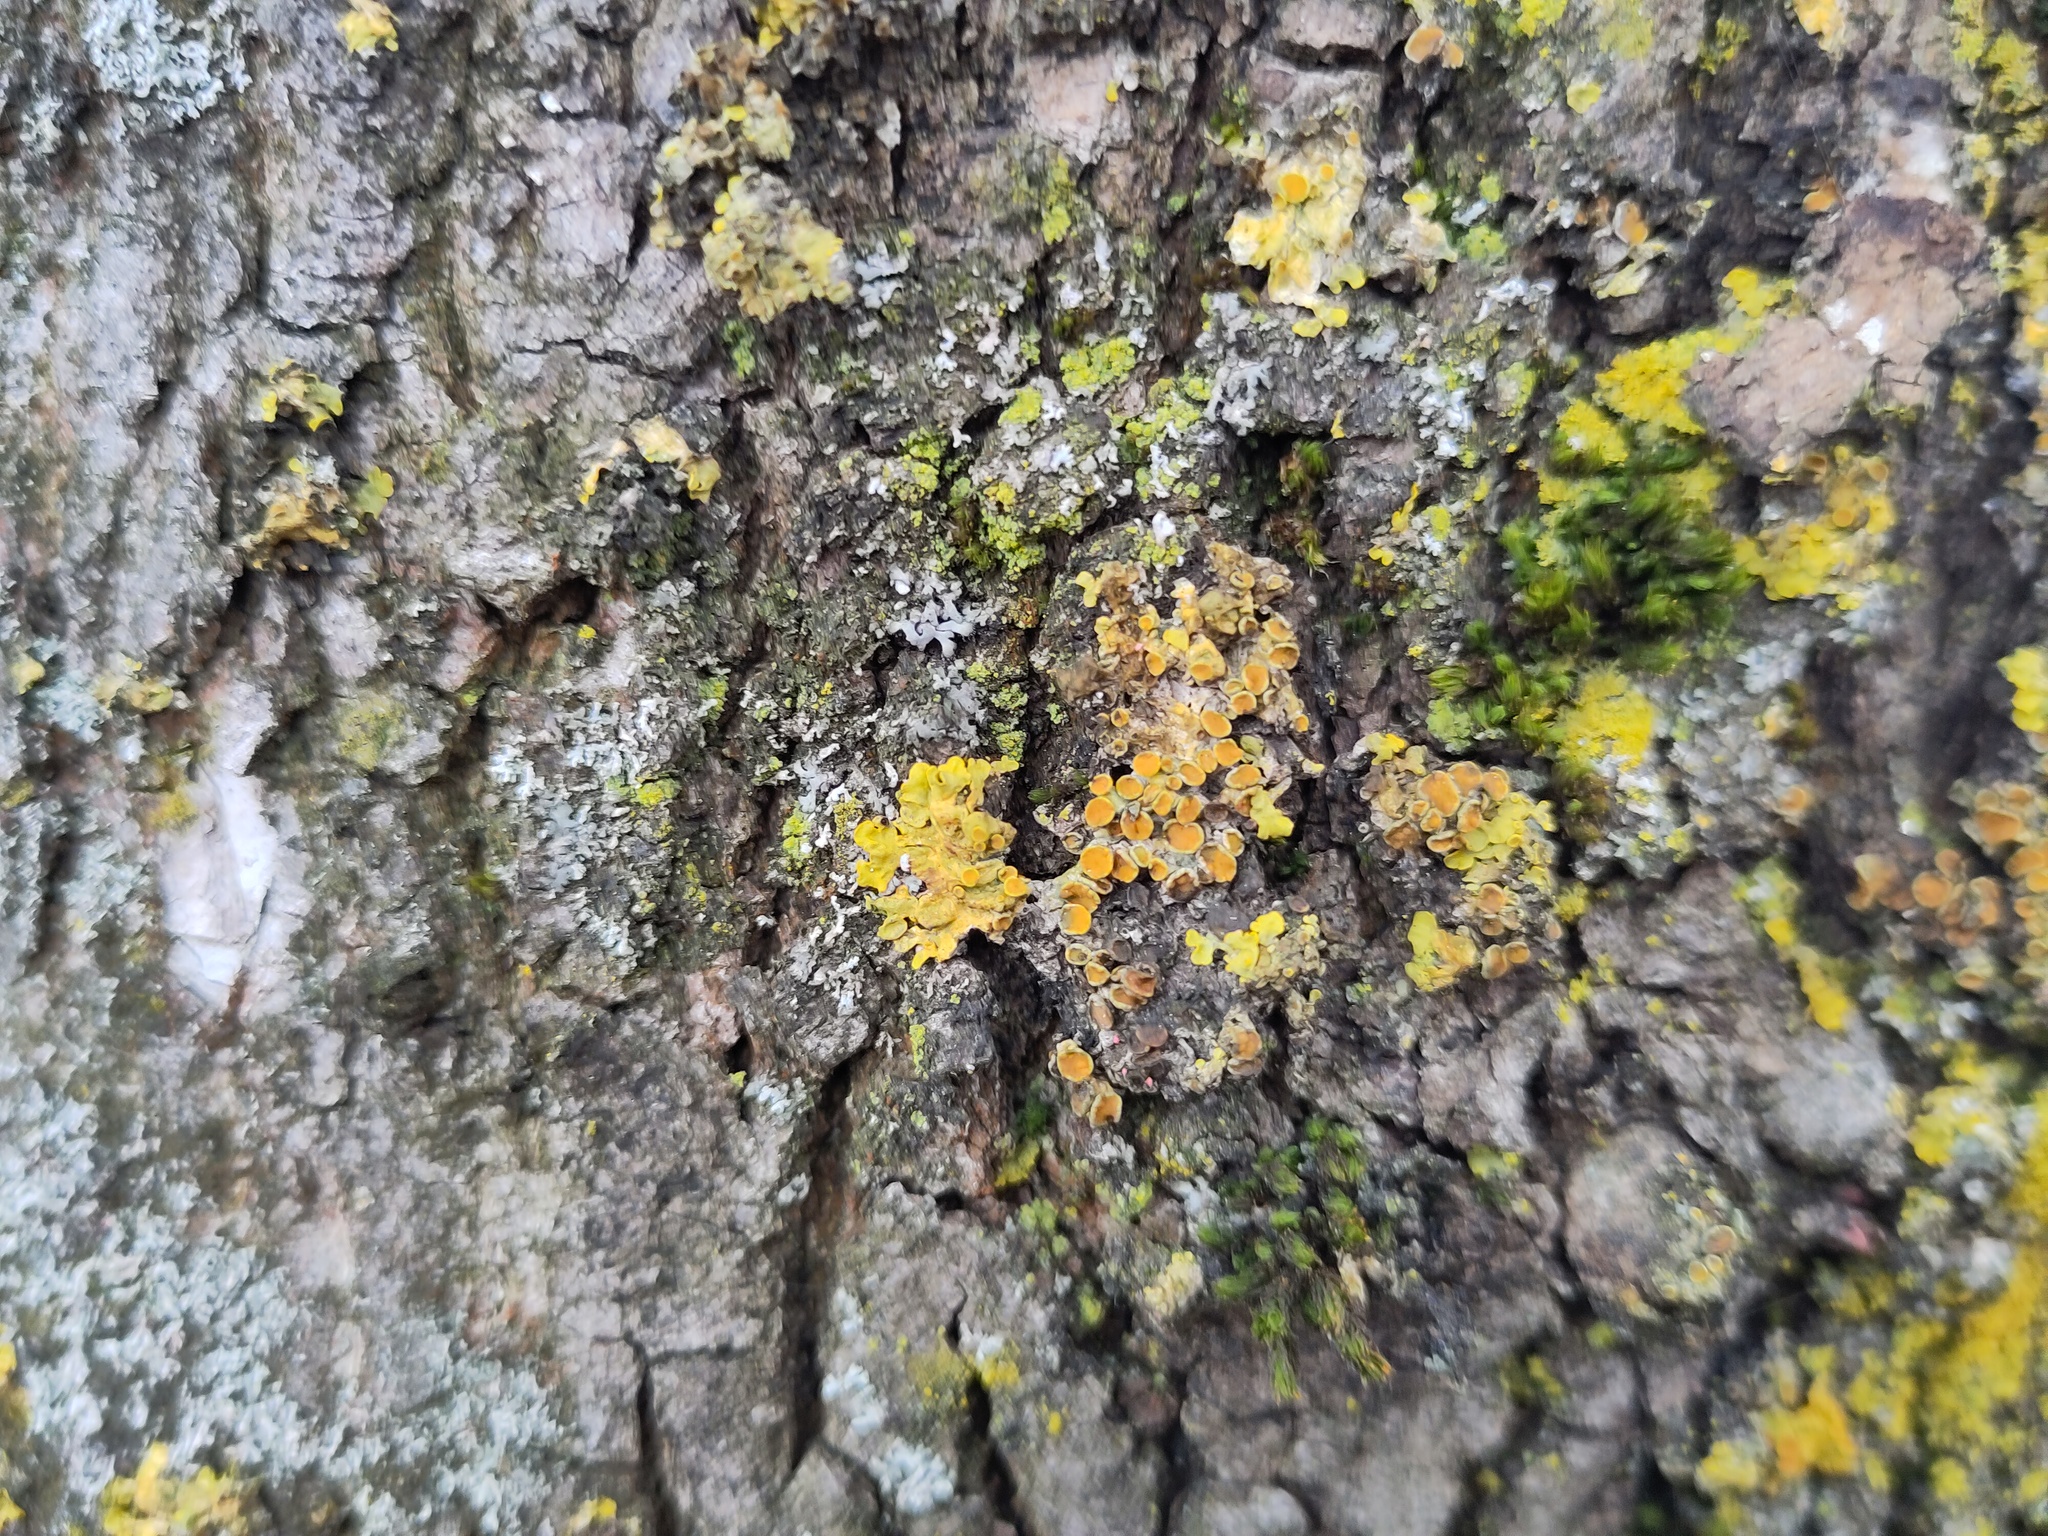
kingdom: Fungi
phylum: Ascomycota
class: Lecanoromycetes
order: Teloschistales
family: Teloschistaceae
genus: Xanthoria
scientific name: Xanthoria parietina
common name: Common orange lichen
